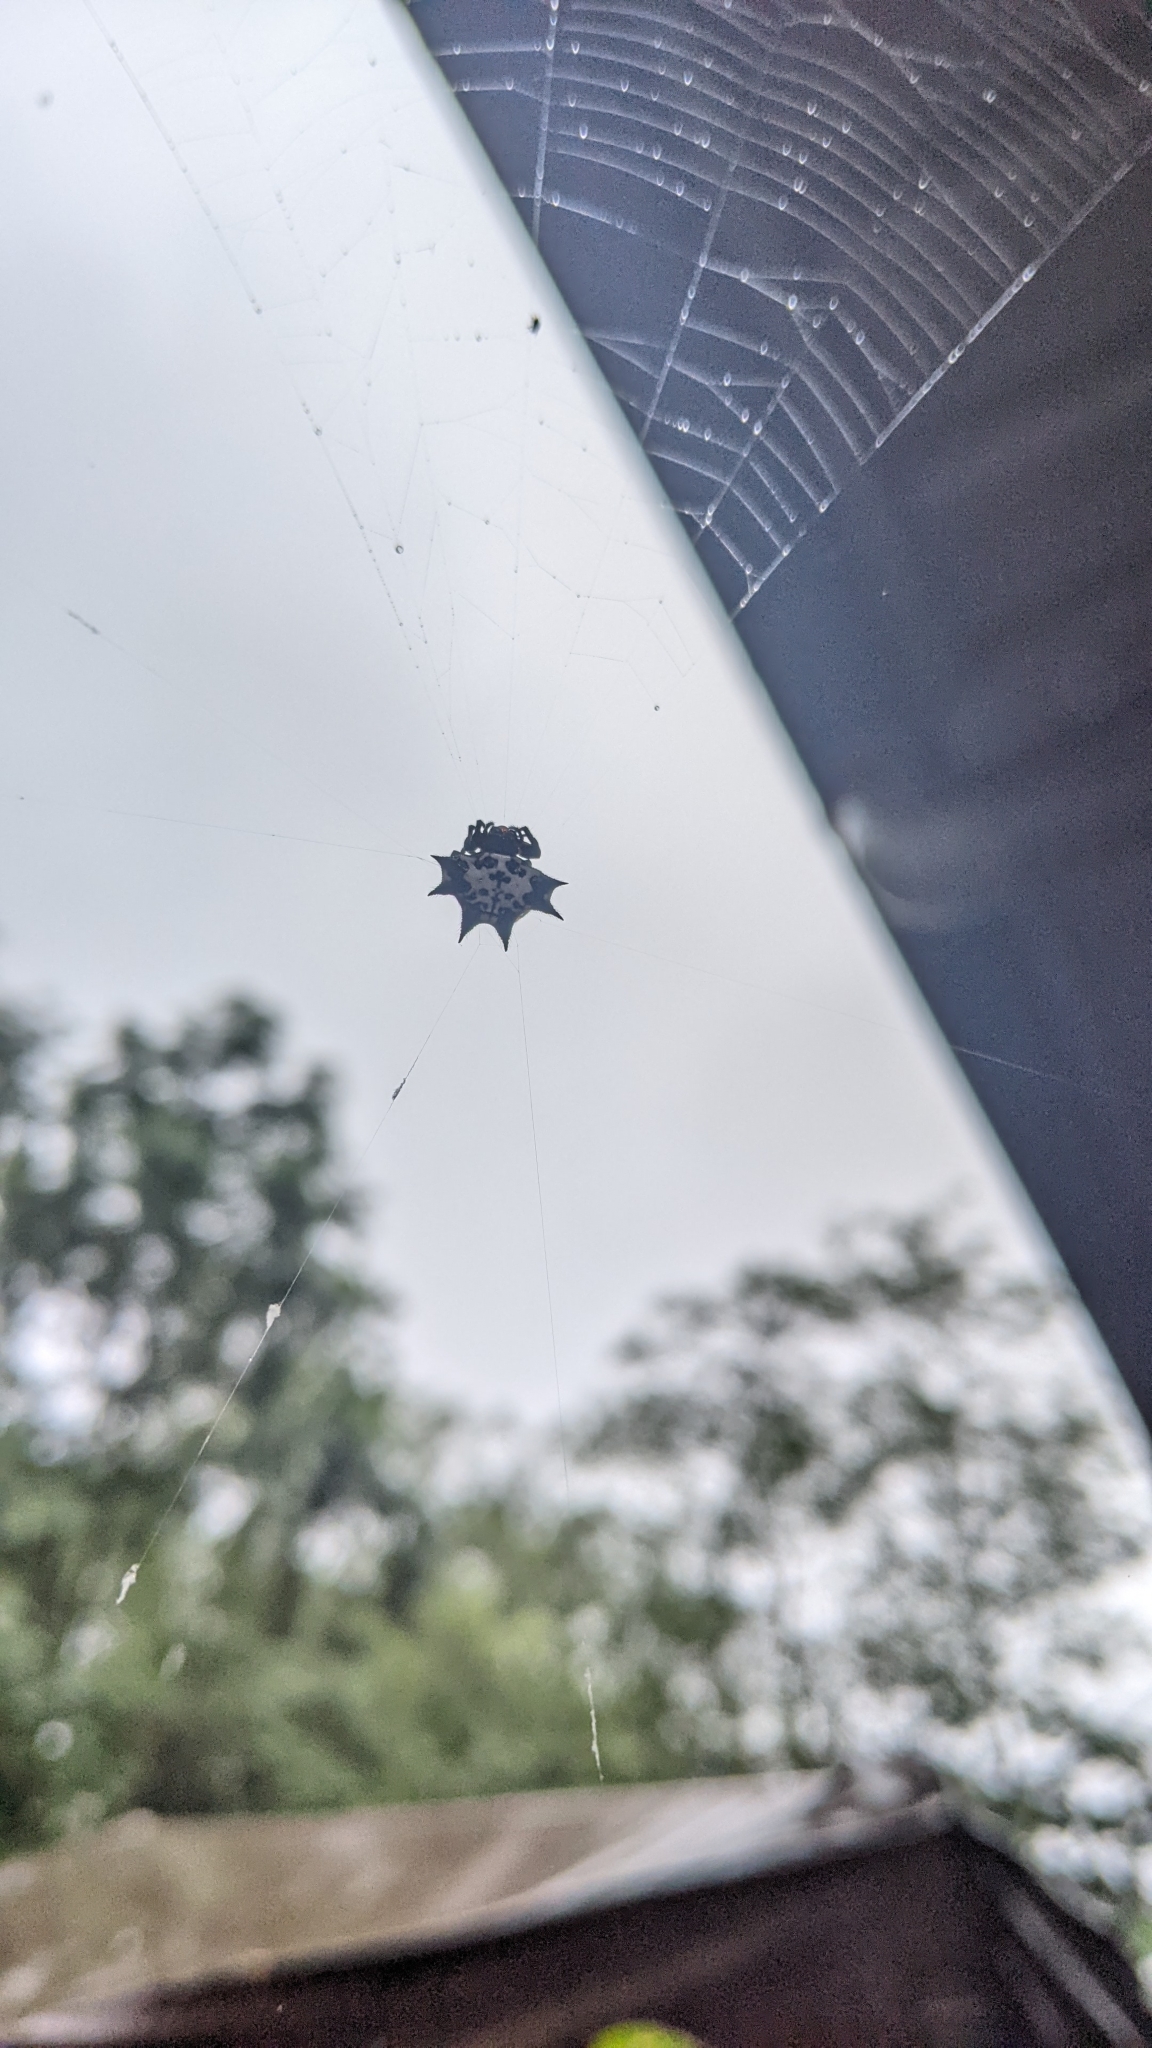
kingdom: Animalia
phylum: Arthropoda
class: Arachnida
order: Araneae
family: Araneidae
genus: Gasteracantha
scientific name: Gasteracantha kuhli
